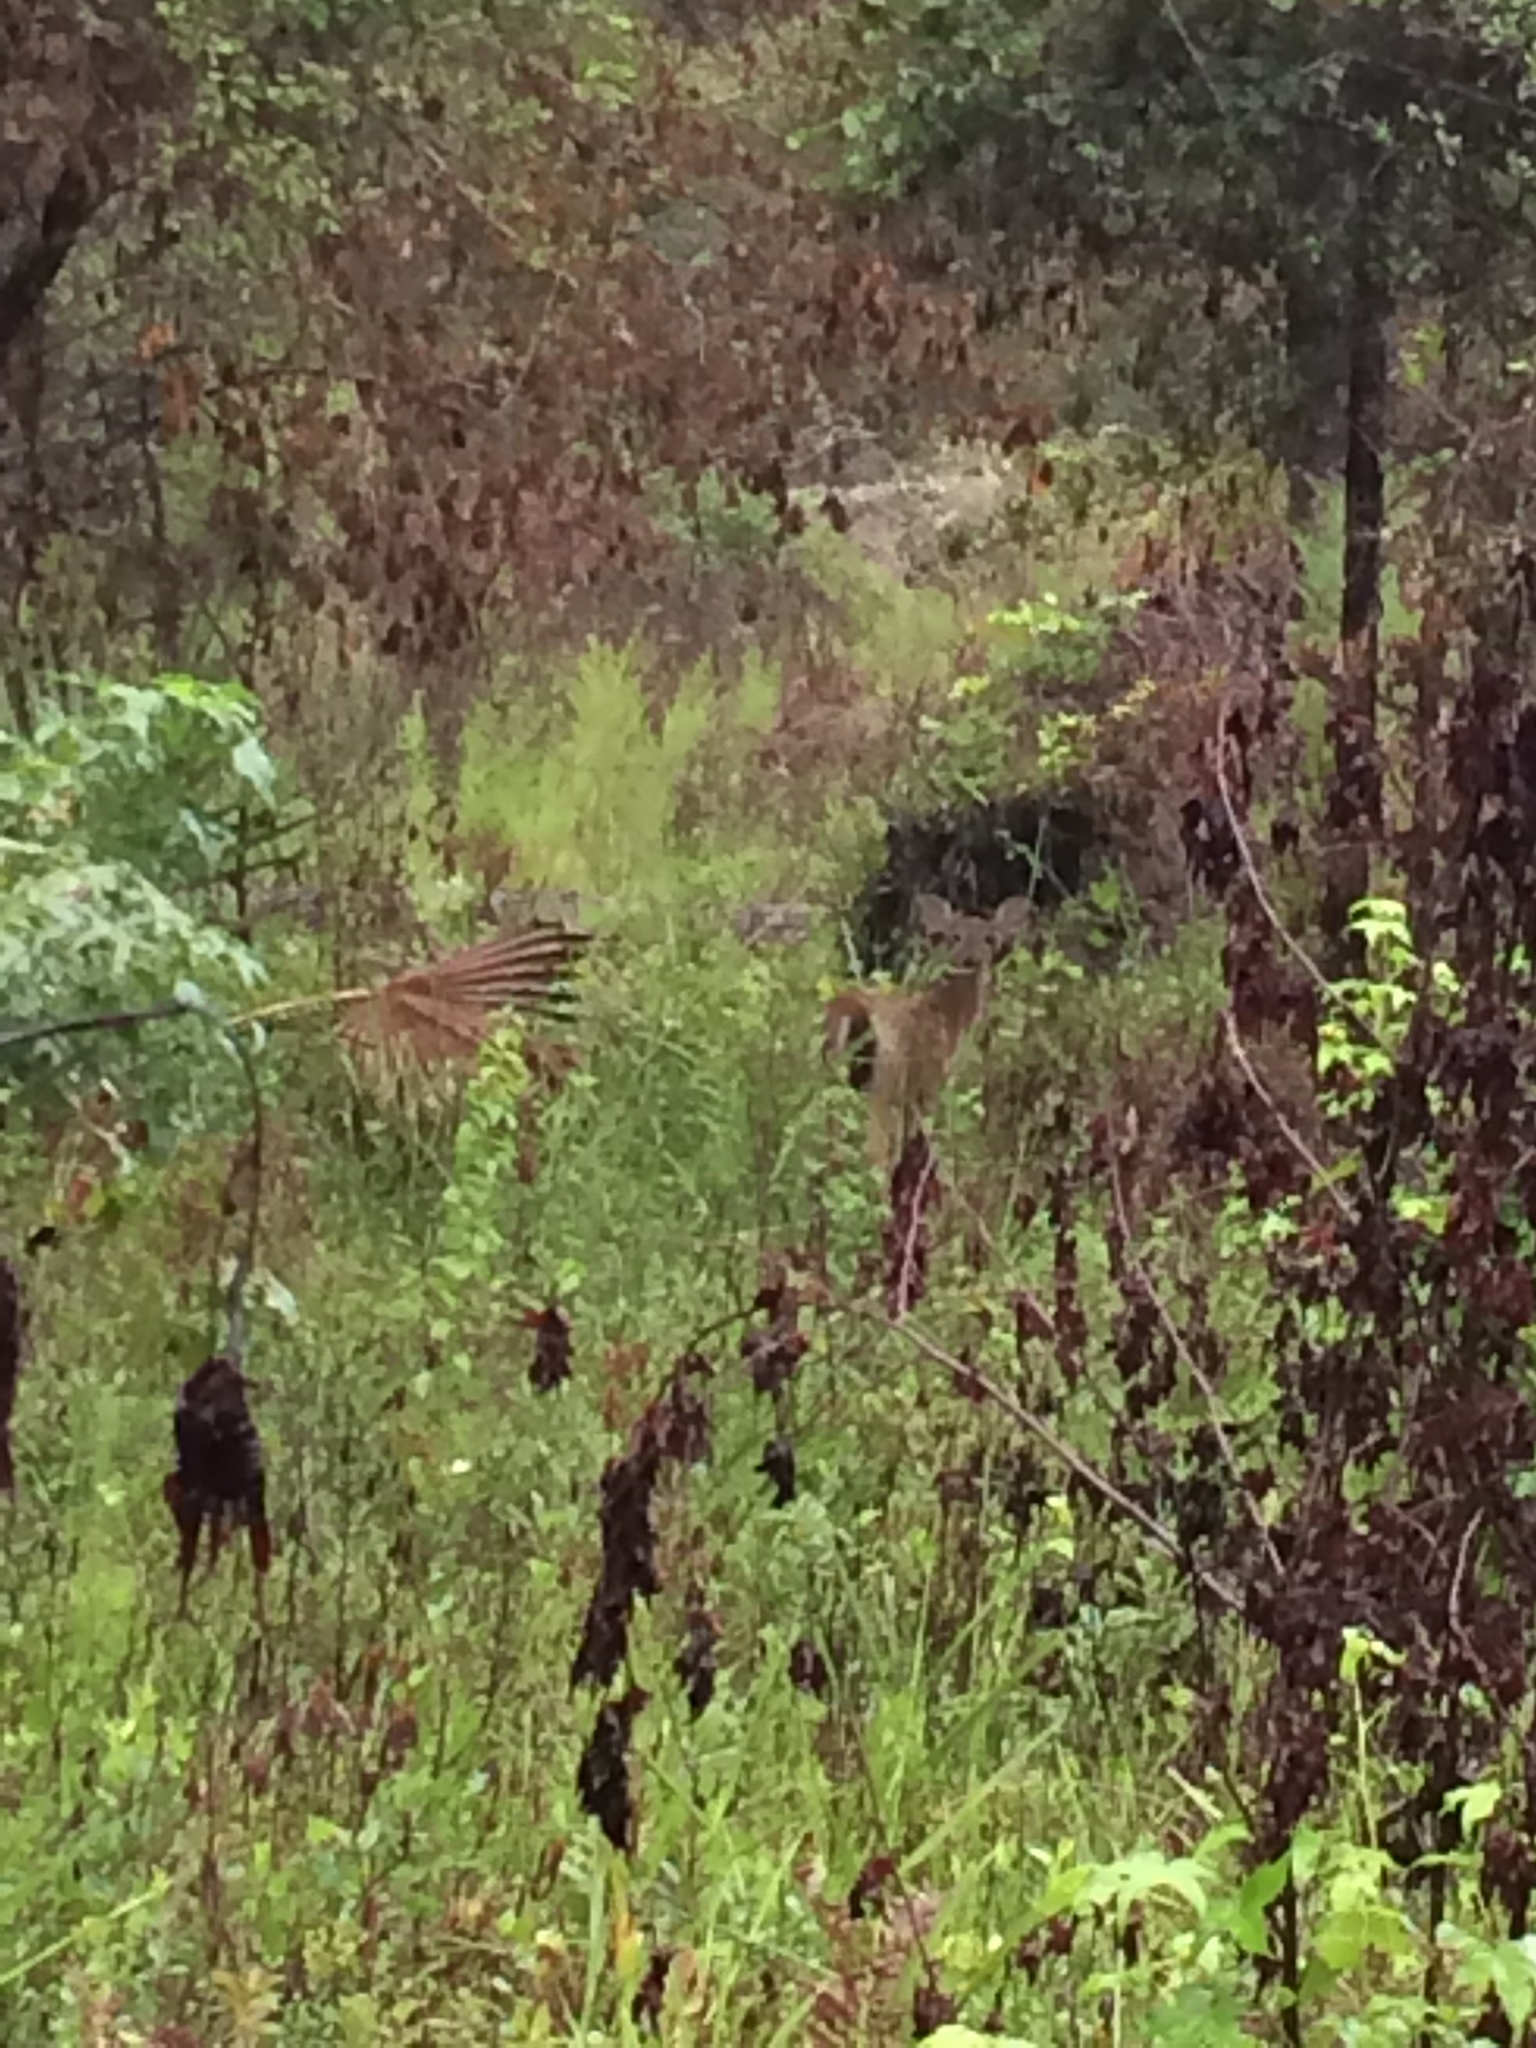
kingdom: Animalia
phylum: Chordata
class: Mammalia
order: Artiodactyla
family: Cervidae
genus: Odocoileus
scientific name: Odocoileus virginianus
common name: White-tailed deer
